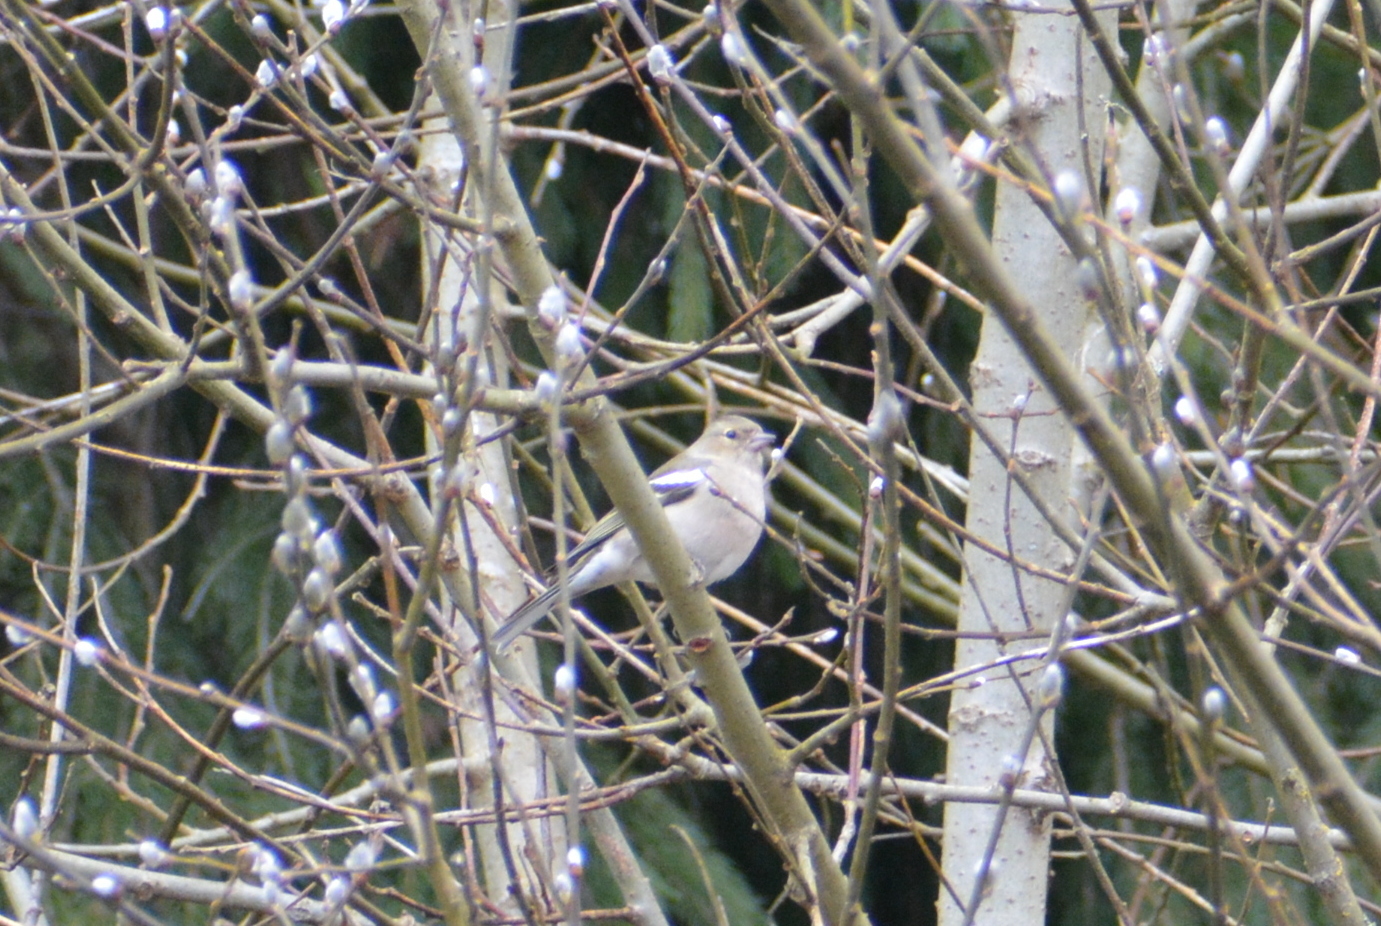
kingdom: Animalia
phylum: Chordata
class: Aves
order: Passeriformes
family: Fringillidae
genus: Fringilla
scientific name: Fringilla coelebs
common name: Common chaffinch
